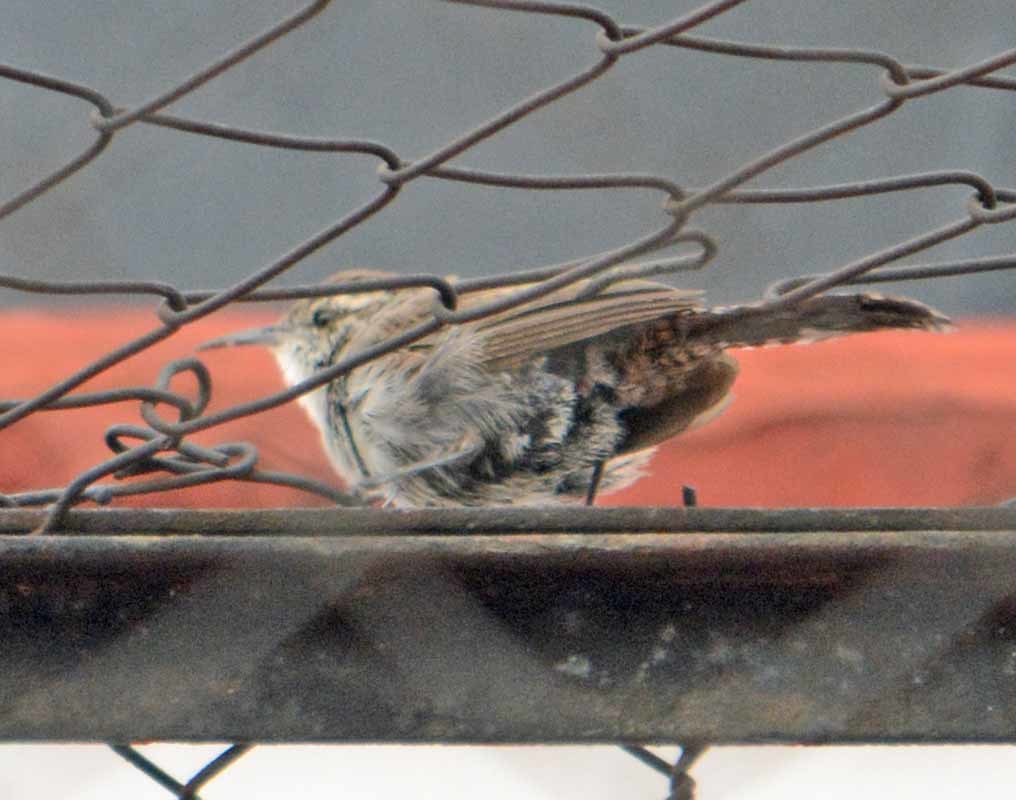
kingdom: Animalia
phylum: Chordata
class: Aves
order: Passeriformes
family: Troglodytidae
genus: Thryomanes
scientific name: Thryomanes bewickii
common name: Bewick's wren
